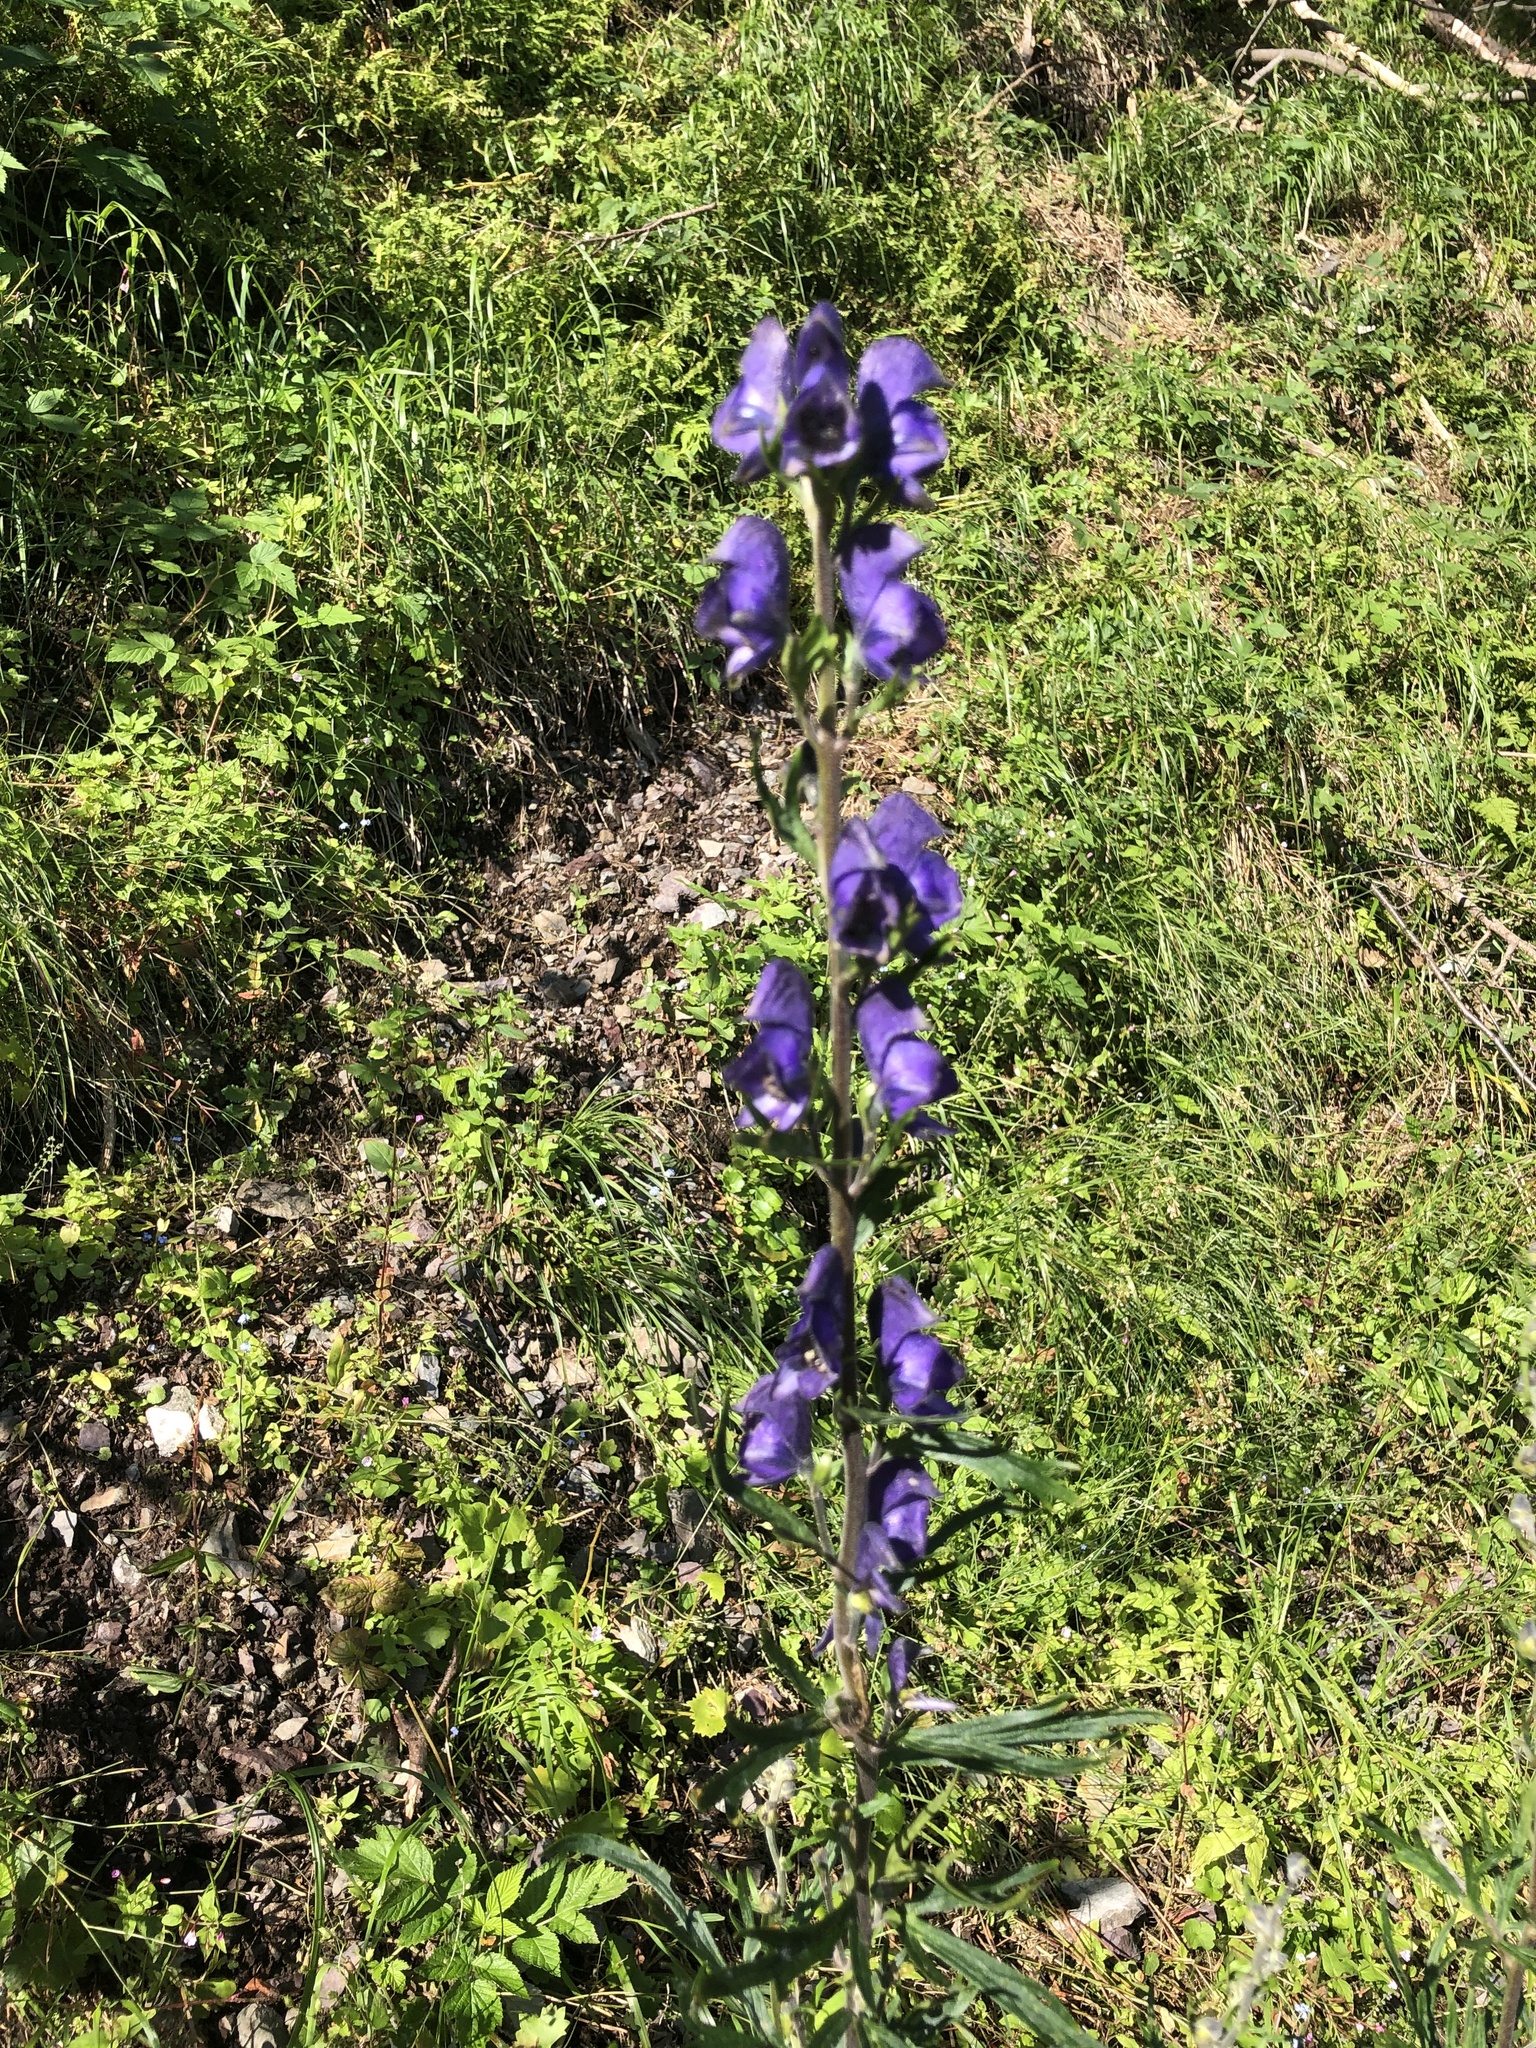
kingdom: Plantae
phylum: Tracheophyta
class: Magnoliopsida
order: Ranunculales
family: Ranunculaceae
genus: Aconitum
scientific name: Aconitum napellus
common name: Garden monkshood
